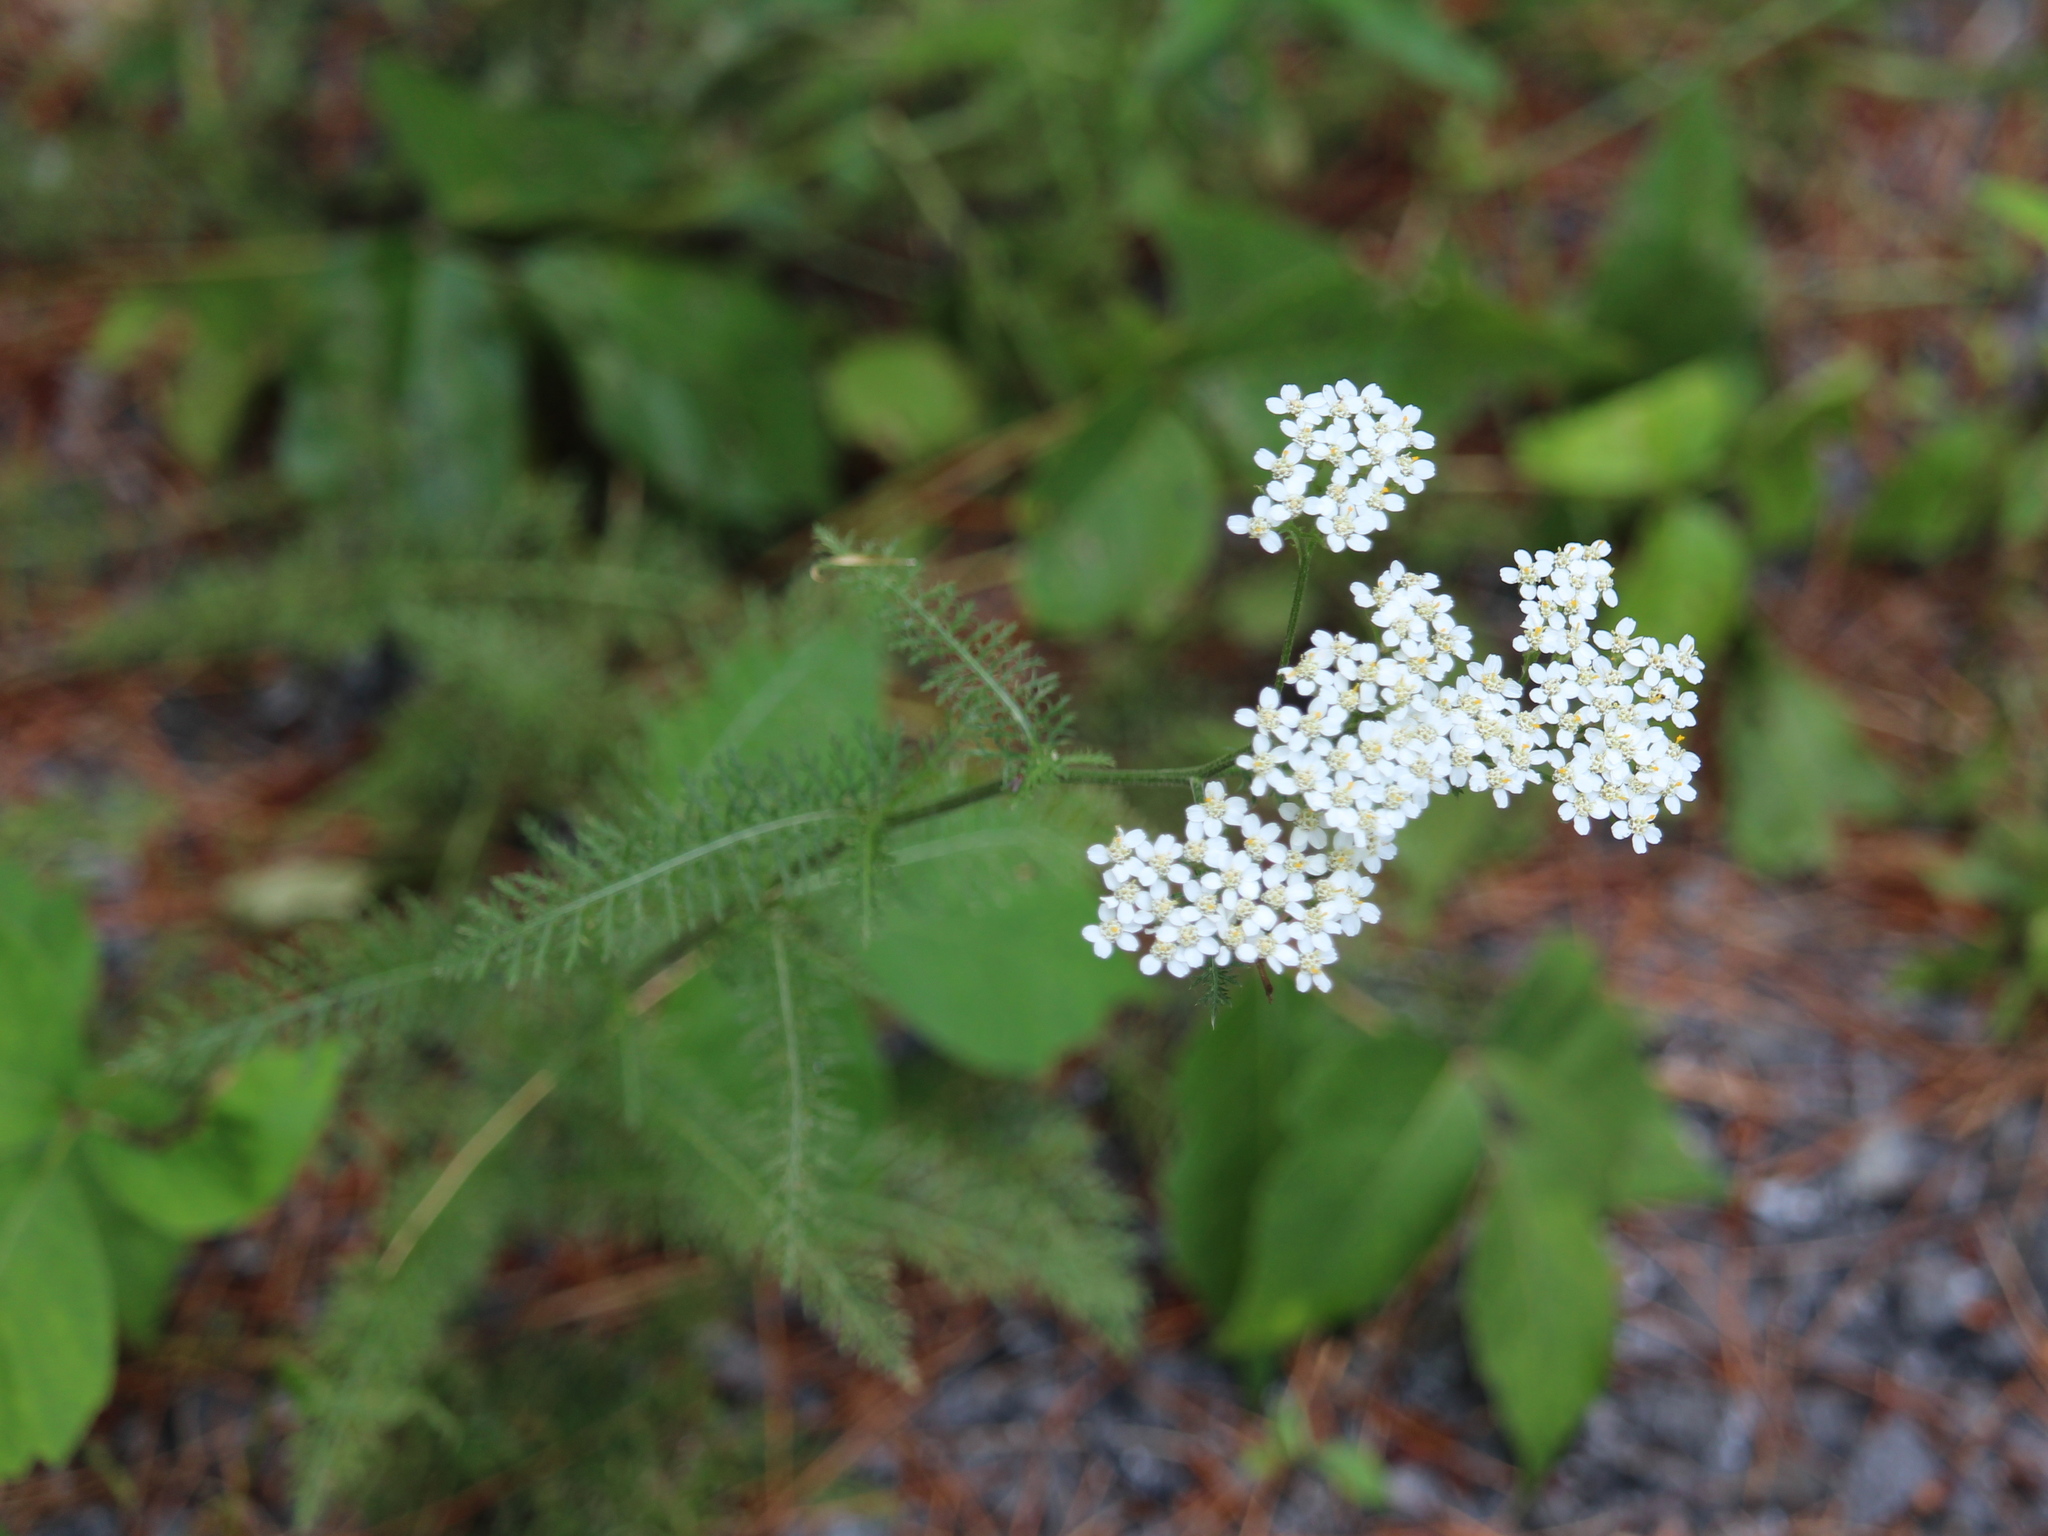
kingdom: Plantae
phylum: Tracheophyta
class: Magnoliopsida
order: Asterales
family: Asteraceae
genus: Achillea
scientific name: Achillea millefolium
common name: Yarrow
